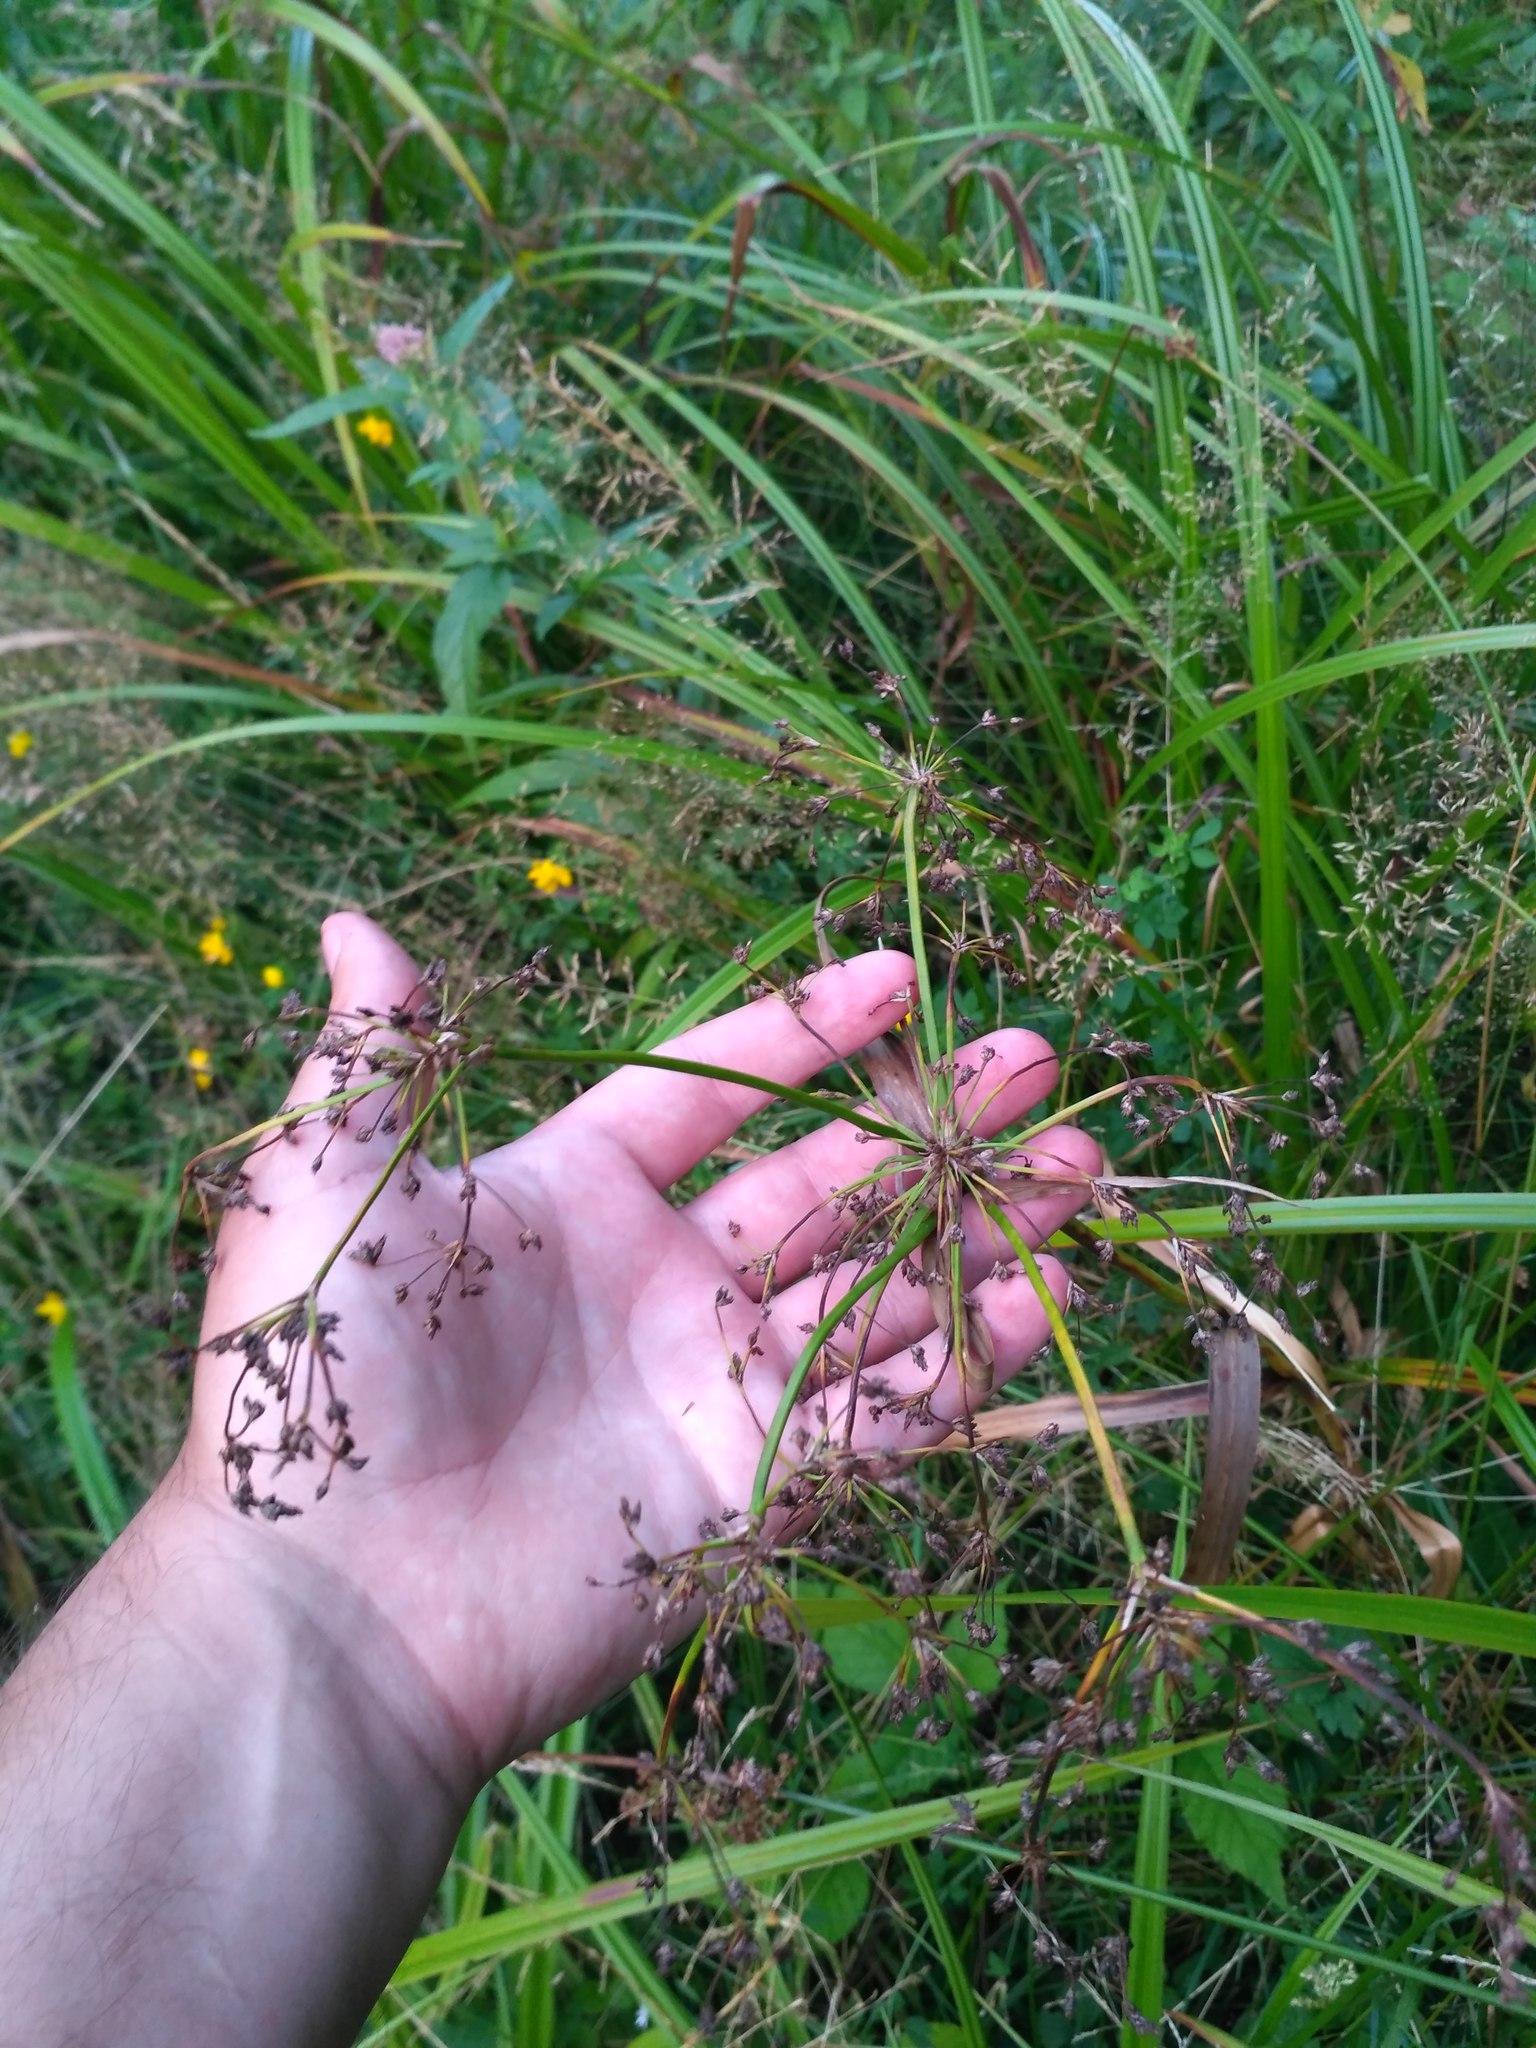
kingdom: Plantae
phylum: Tracheophyta
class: Liliopsida
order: Poales
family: Cyperaceae
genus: Scirpus
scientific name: Scirpus sylvaticus
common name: Wood club-rush
